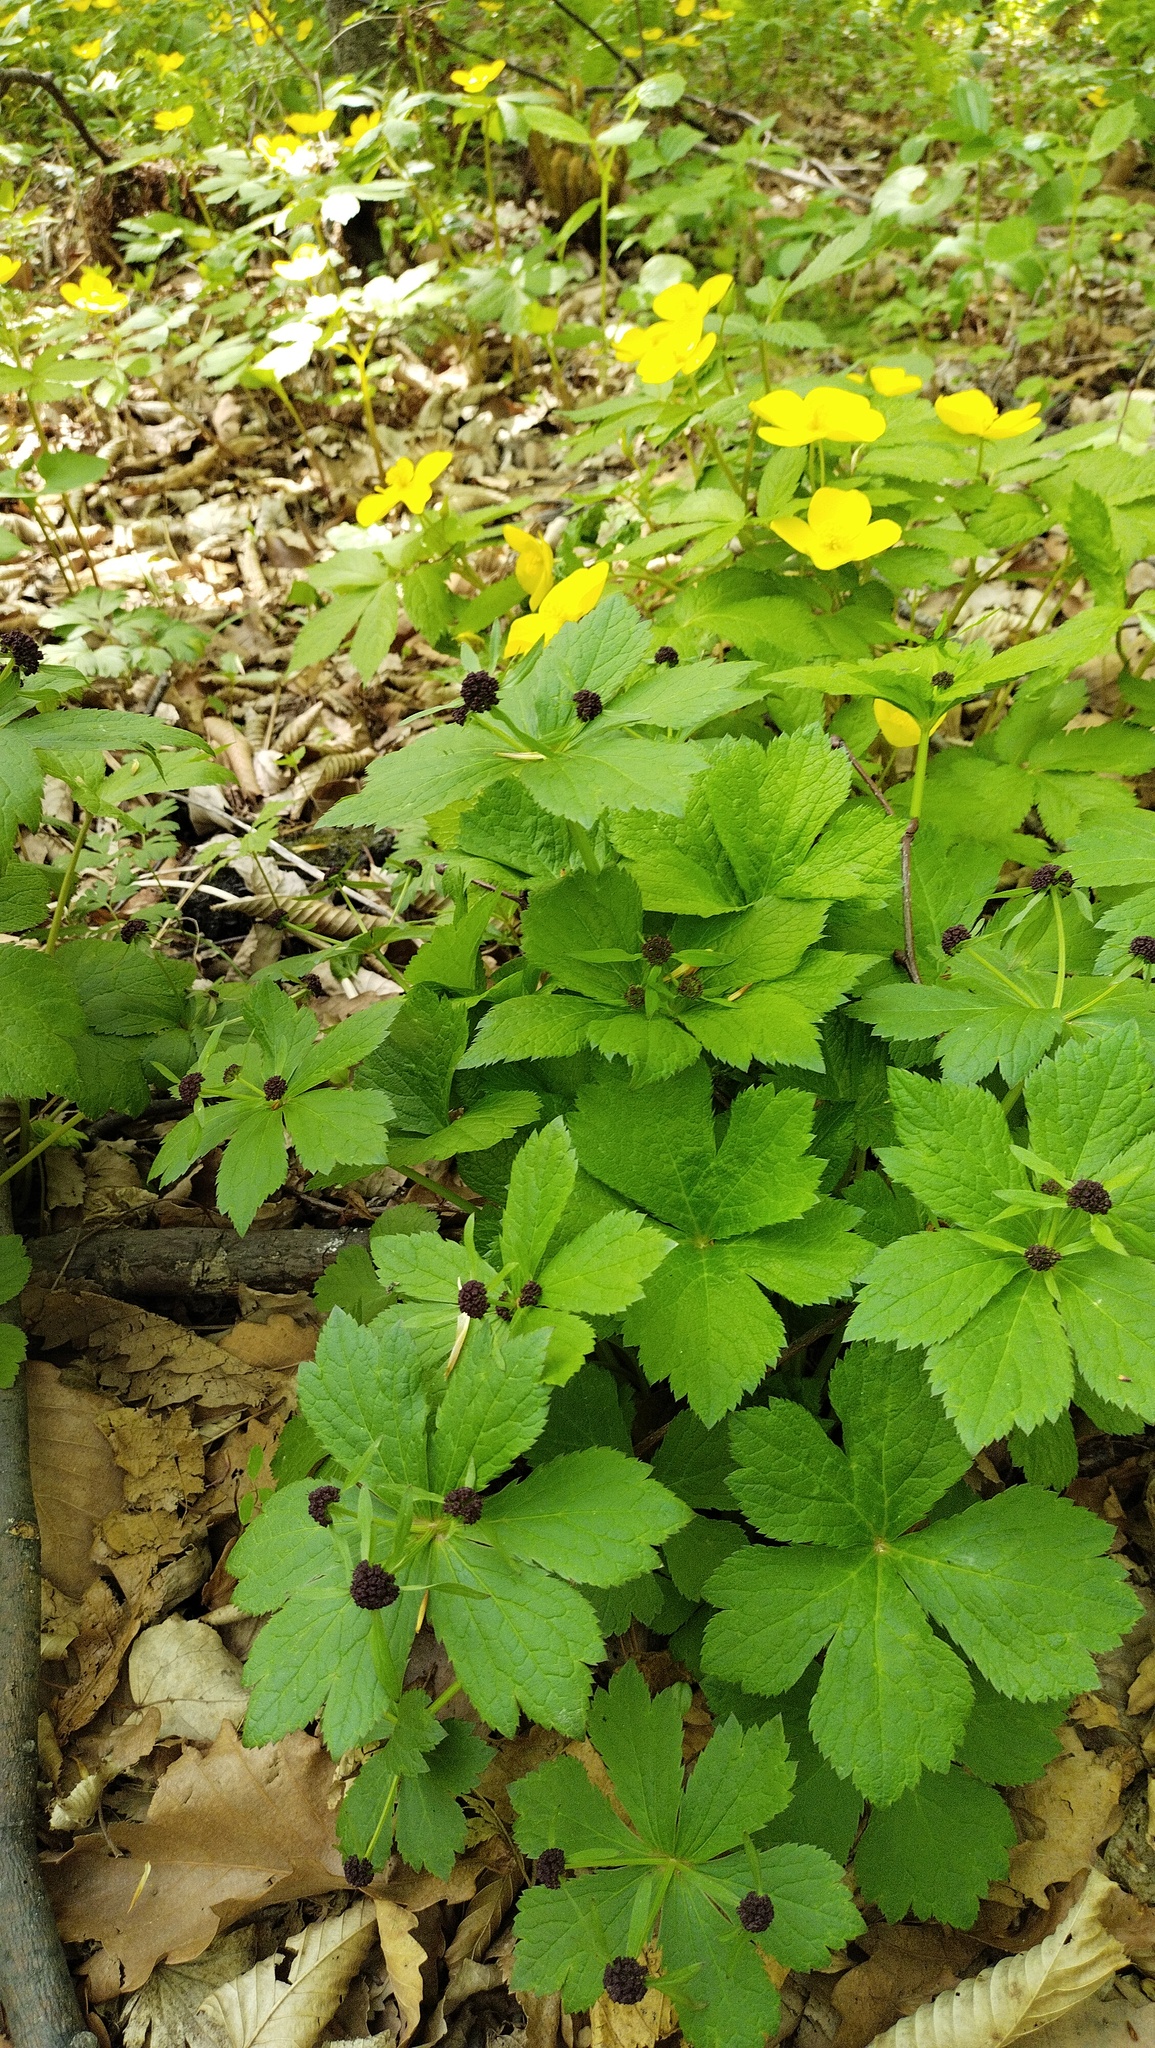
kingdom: Plantae
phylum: Tracheophyta
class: Magnoliopsida
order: Apiales
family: Apiaceae
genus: Sanicula
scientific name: Sanicula rubriflora
